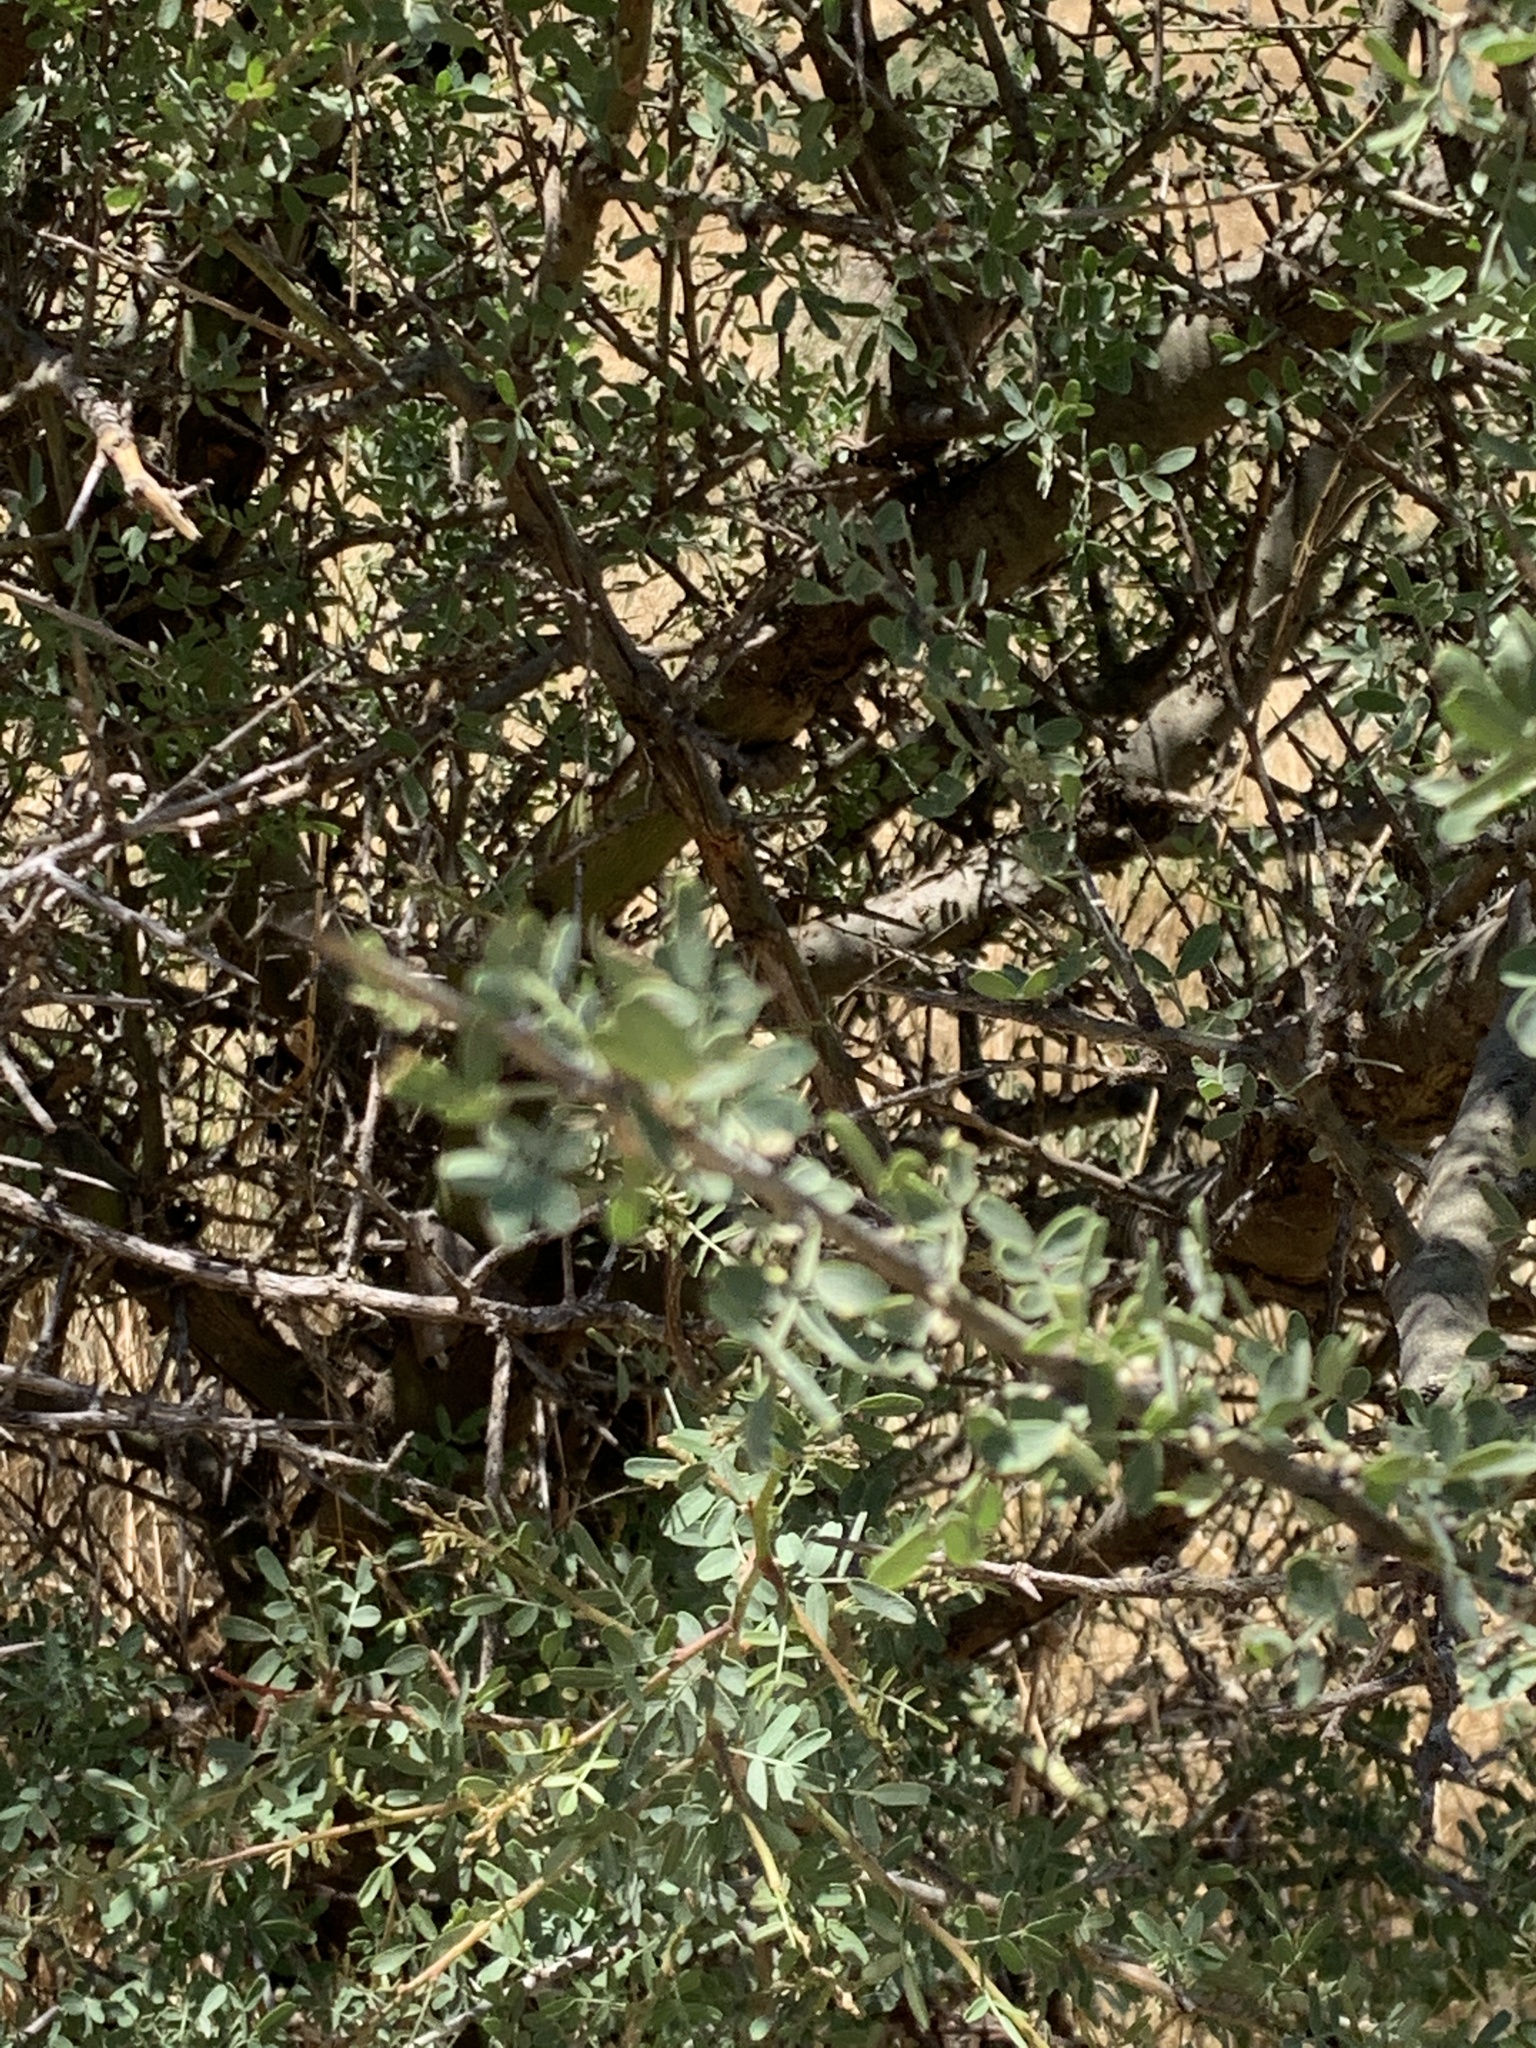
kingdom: Plantae
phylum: Tracheophyta
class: Magnoliopsida
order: Fabales
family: Fabaceae
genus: Geoffroea
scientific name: Geoffroea decorticans
